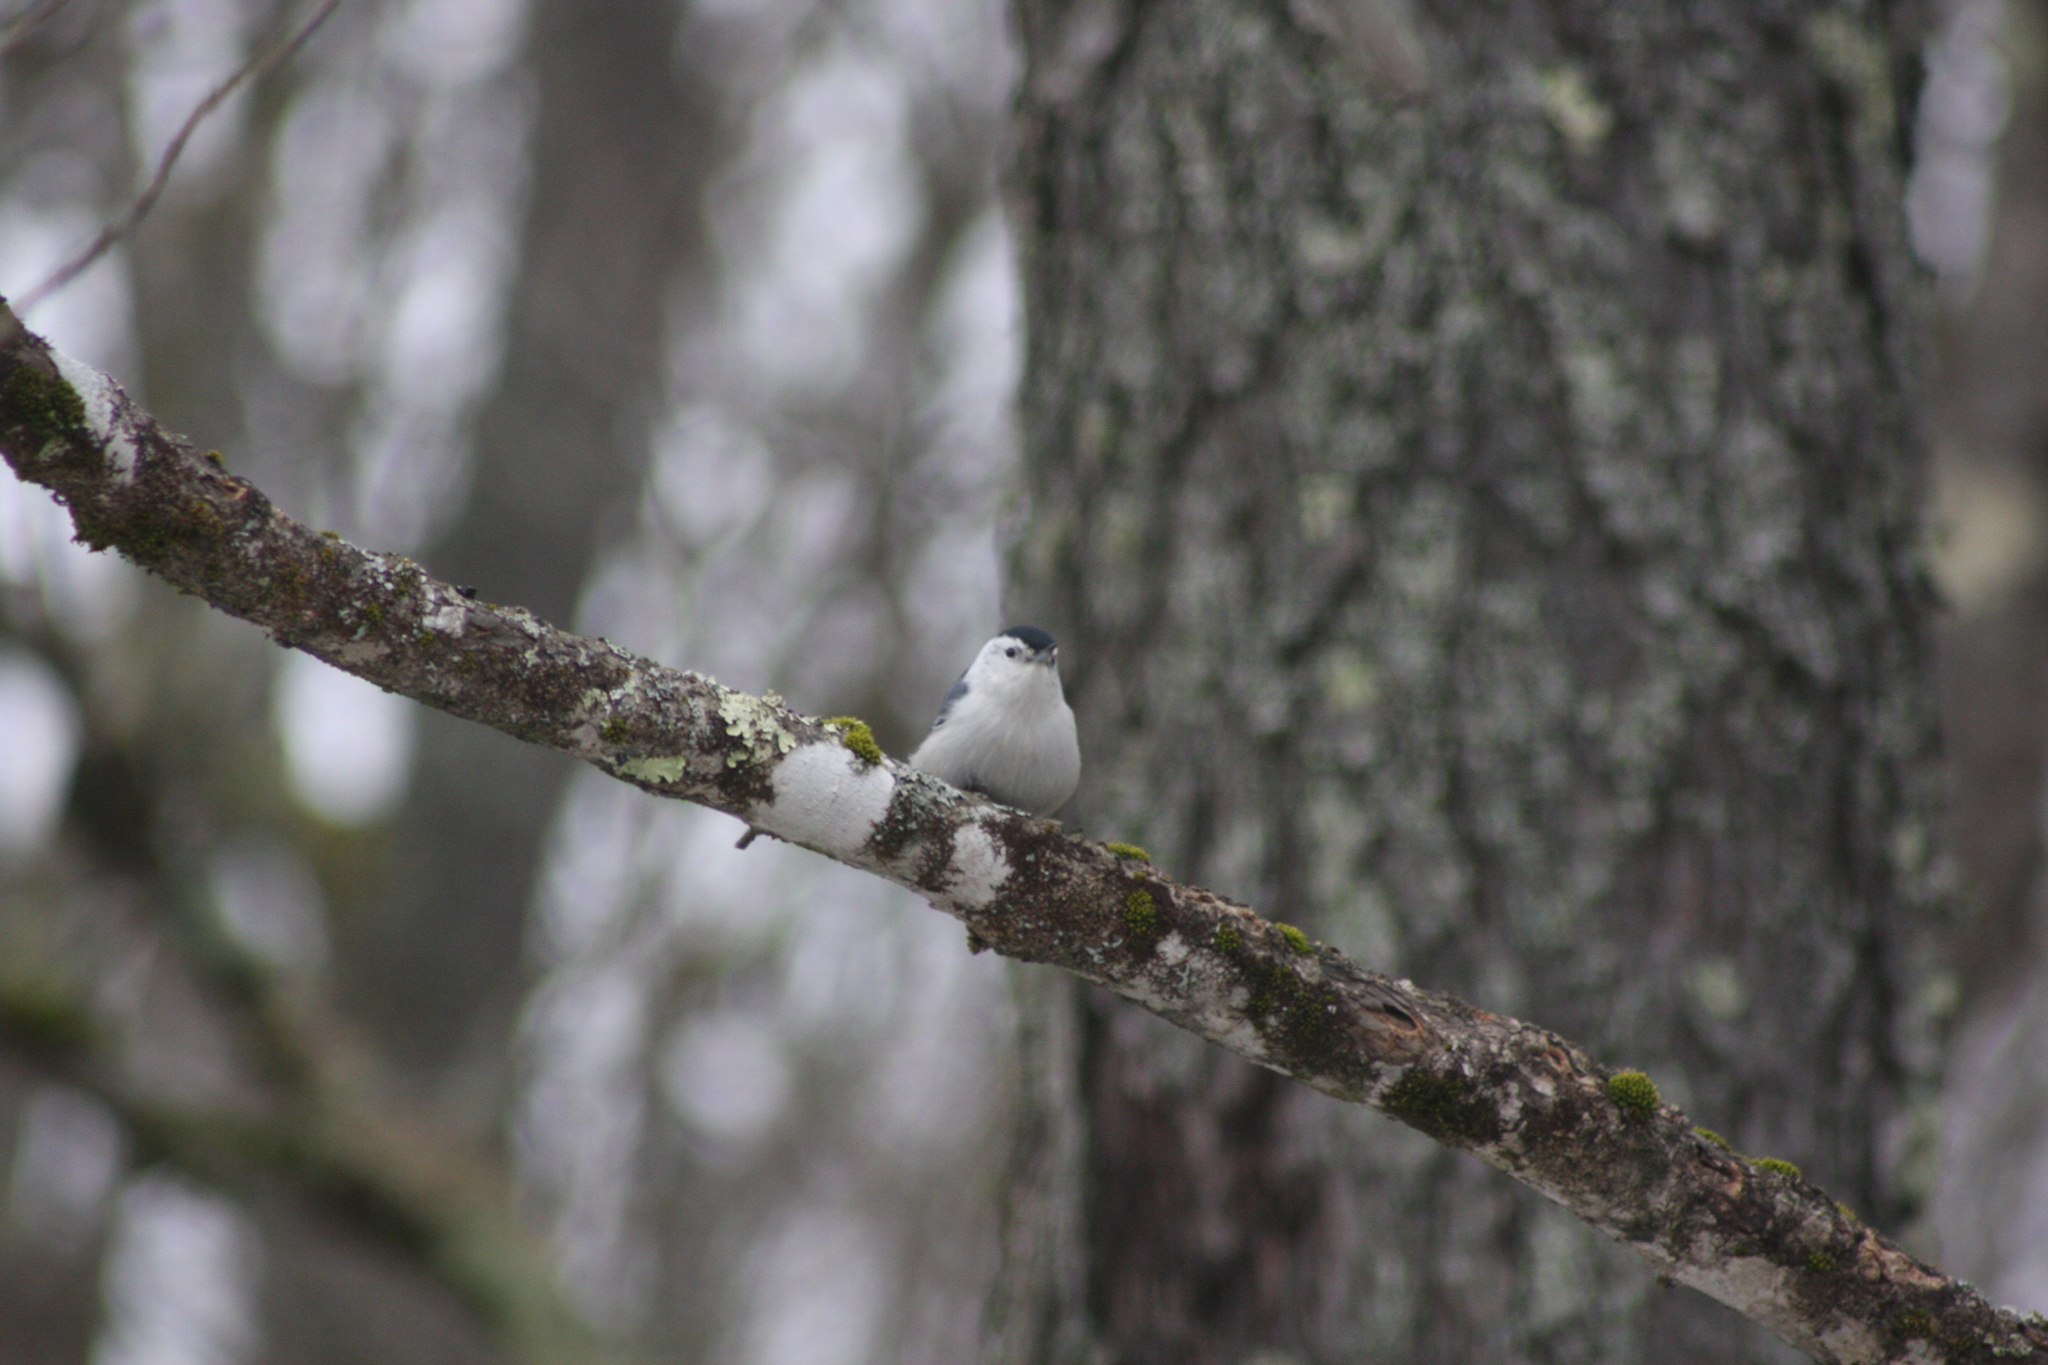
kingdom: Animalia
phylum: Chordata
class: Aves
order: Passeriformes
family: Sittidae
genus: Sitta
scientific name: Sitta carolinensis
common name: White-breasted nuthatch
